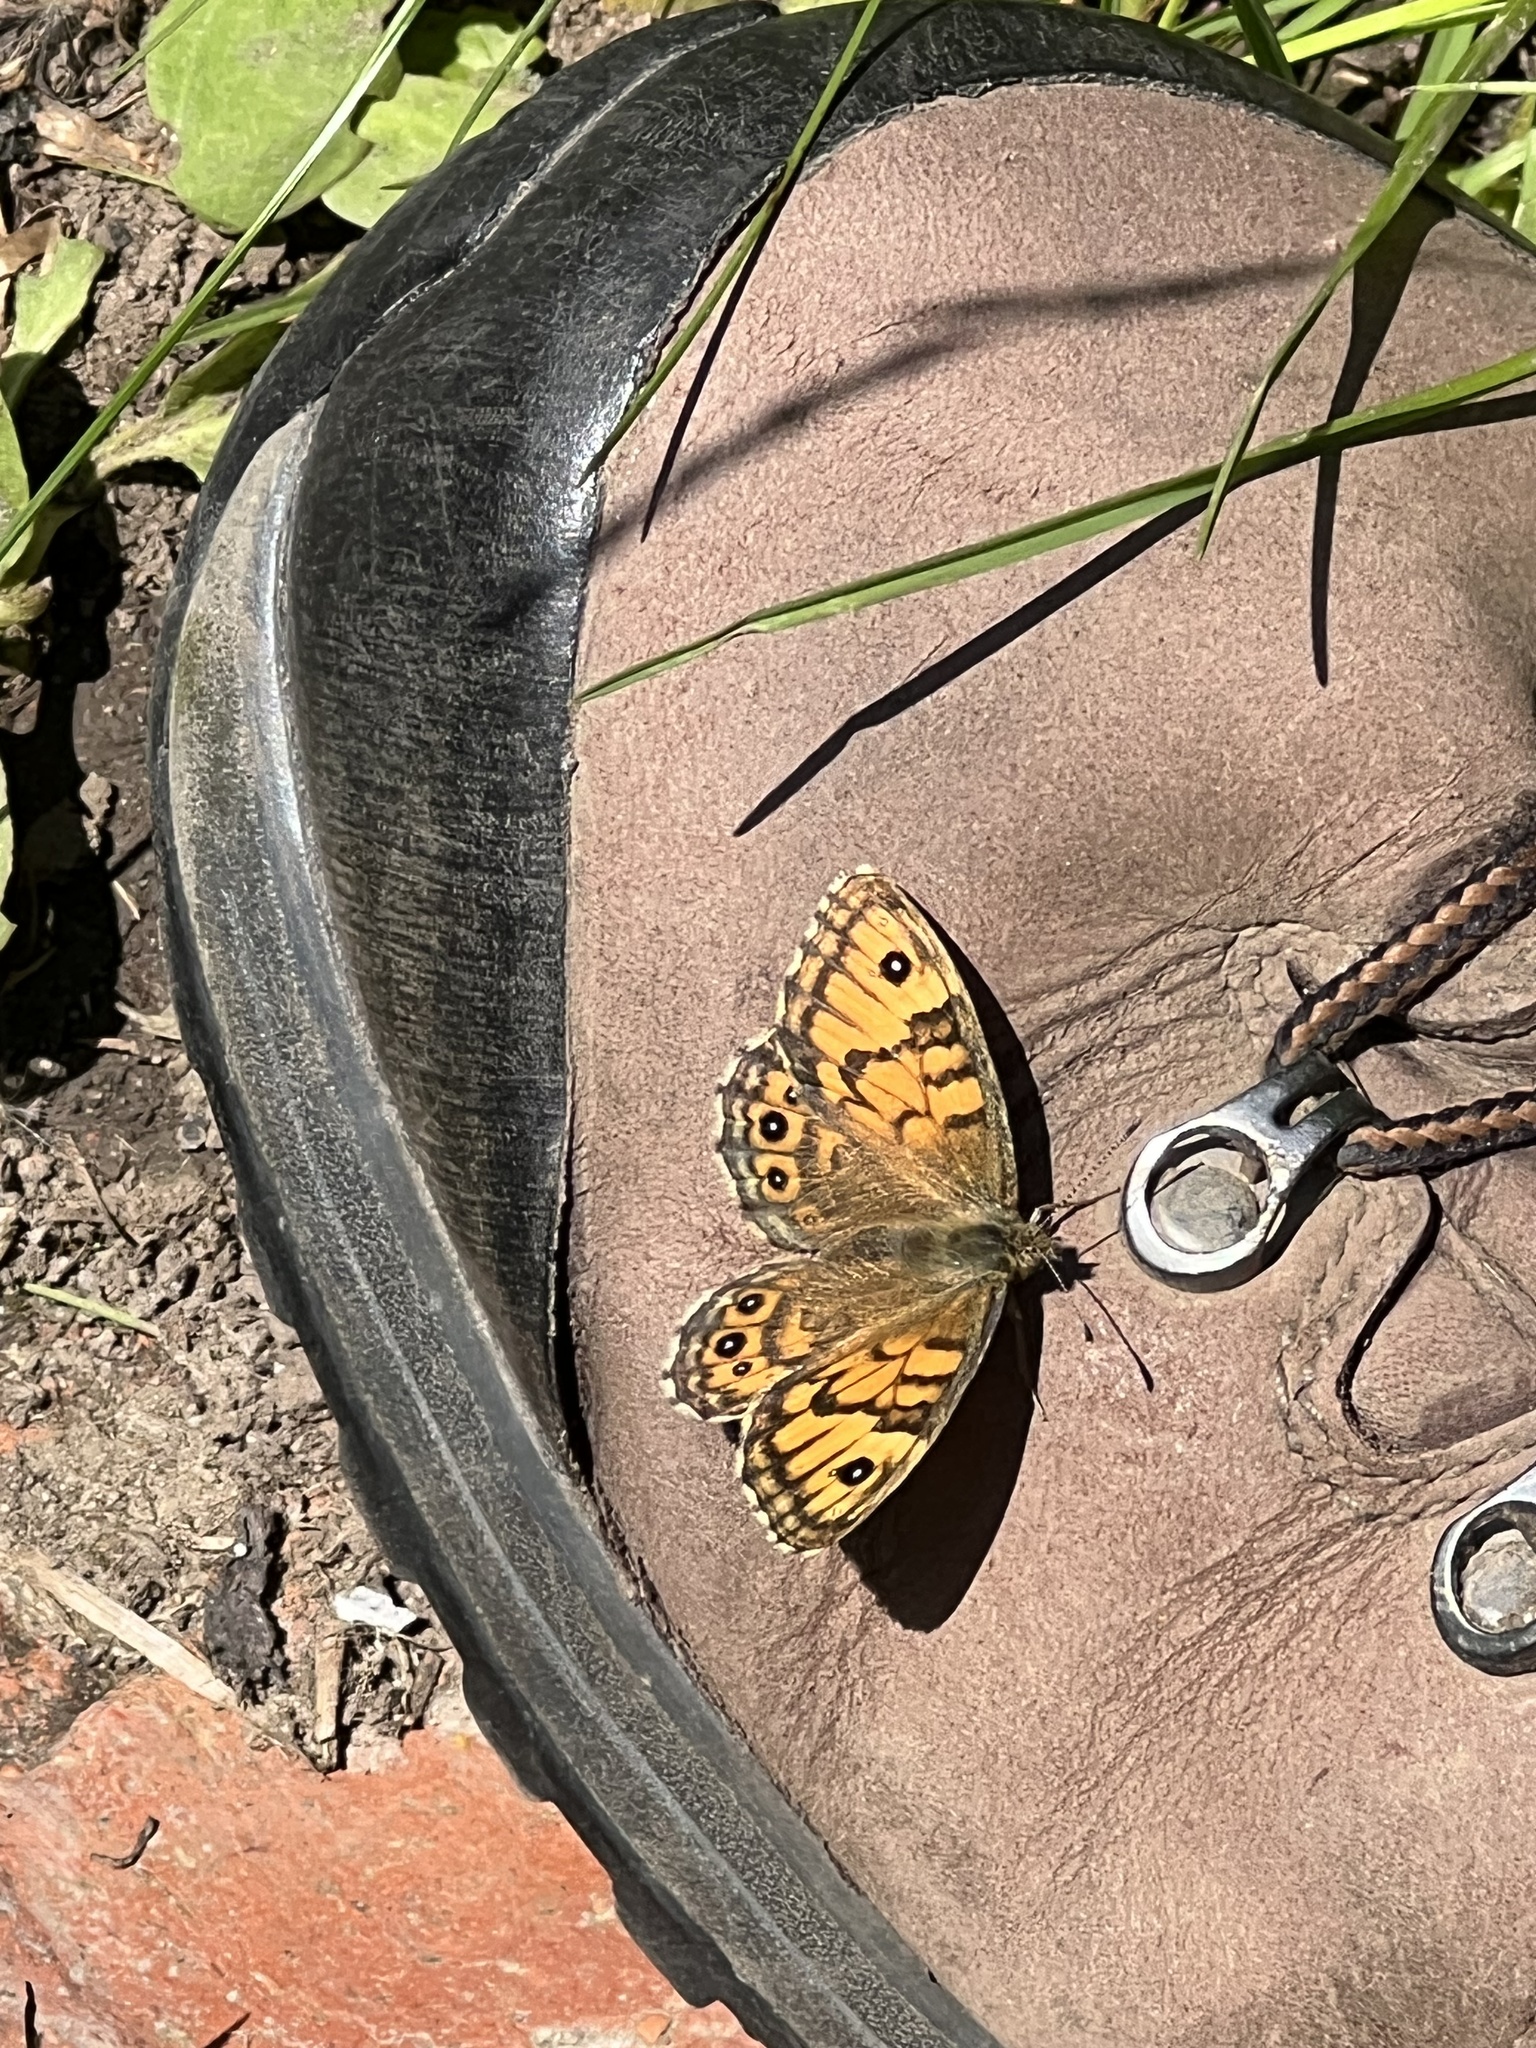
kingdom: Animalia
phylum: Arthropoda
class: Insecta
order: Lepidoptera
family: Nymphalidae
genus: Pararge
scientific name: Pararge Lasiommata megera
